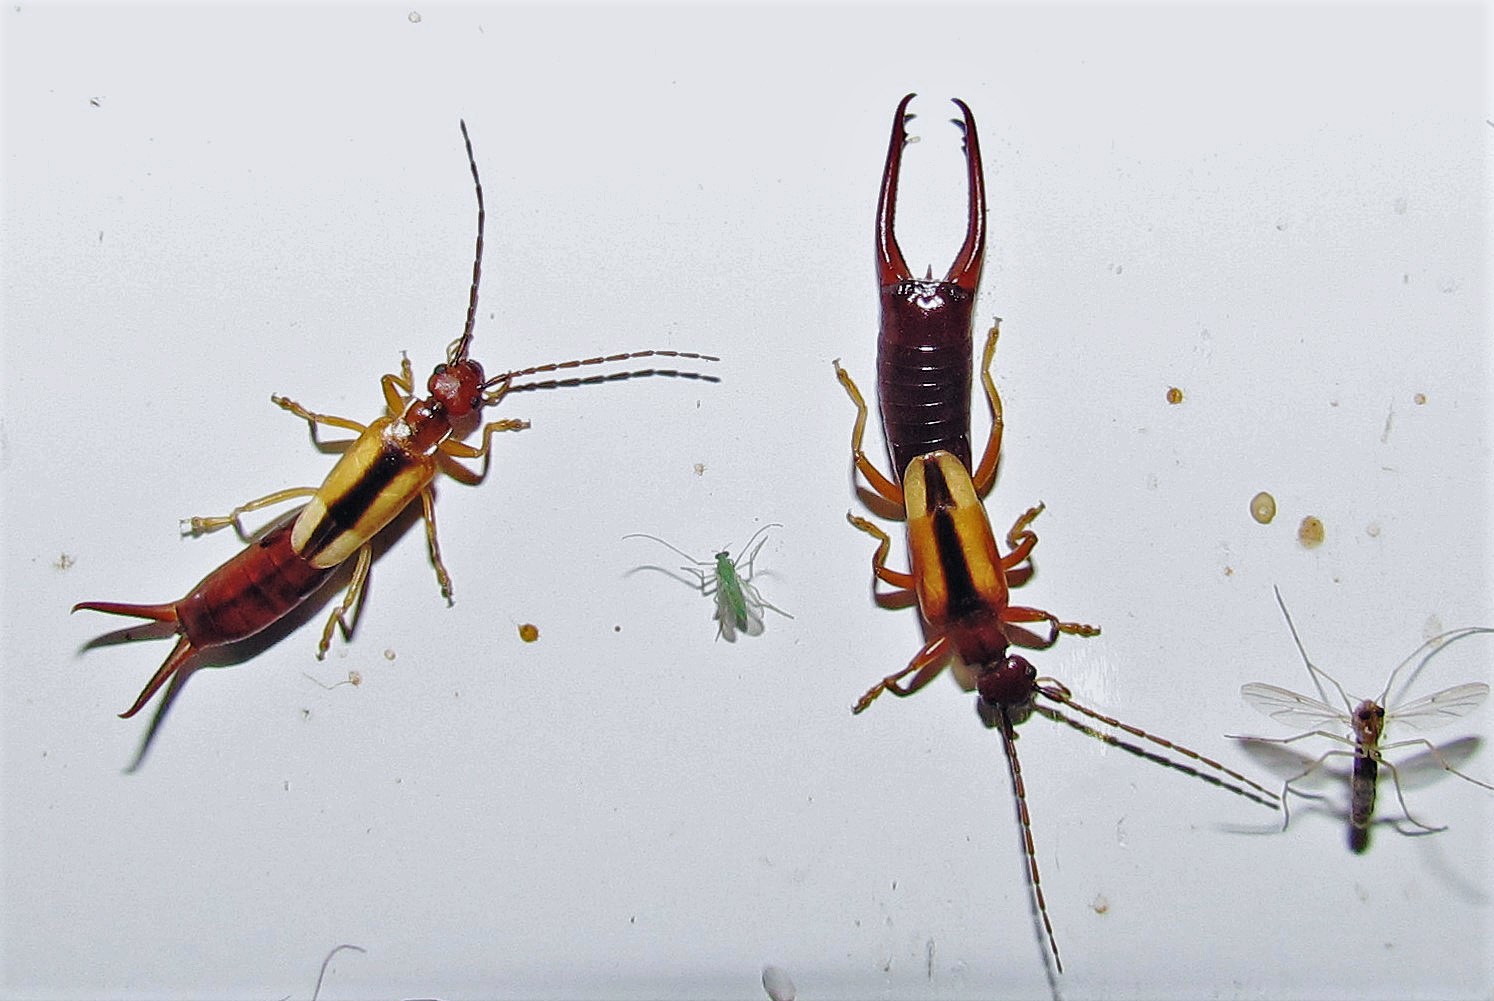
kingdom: Animalia
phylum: Arthropoda
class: Insecta
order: Dermaptera
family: Forficulidae
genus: Doru
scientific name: Doru
